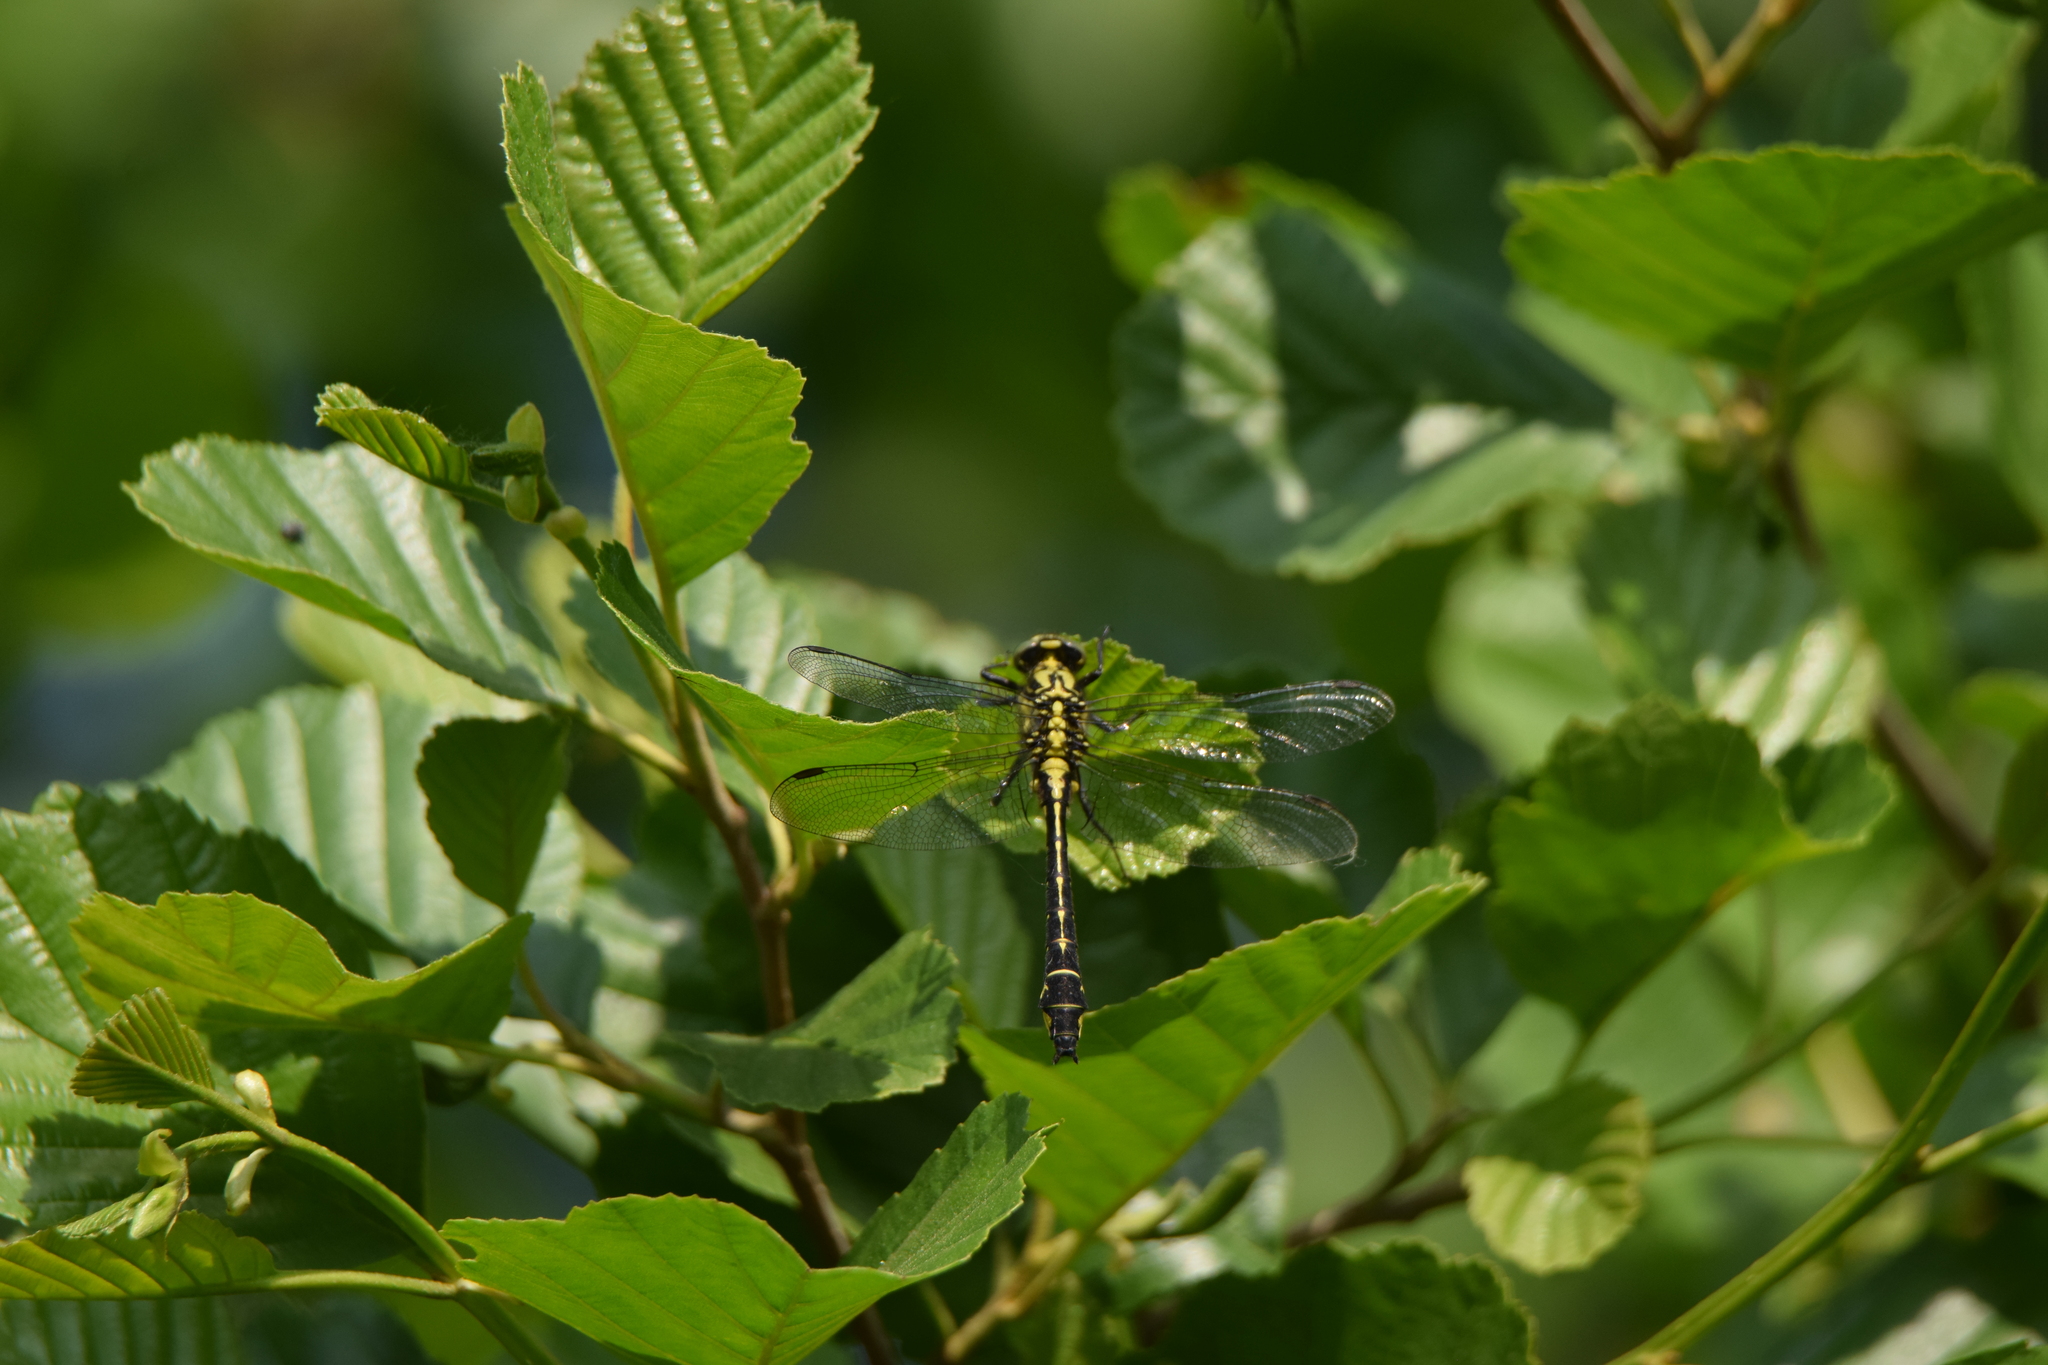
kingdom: Animalia
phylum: Arthropoda
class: Insecta
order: Odonata
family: Gomphidae
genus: Gomphus
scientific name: Gomphus vulgatissimus
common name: Club-tailed dragonfly
